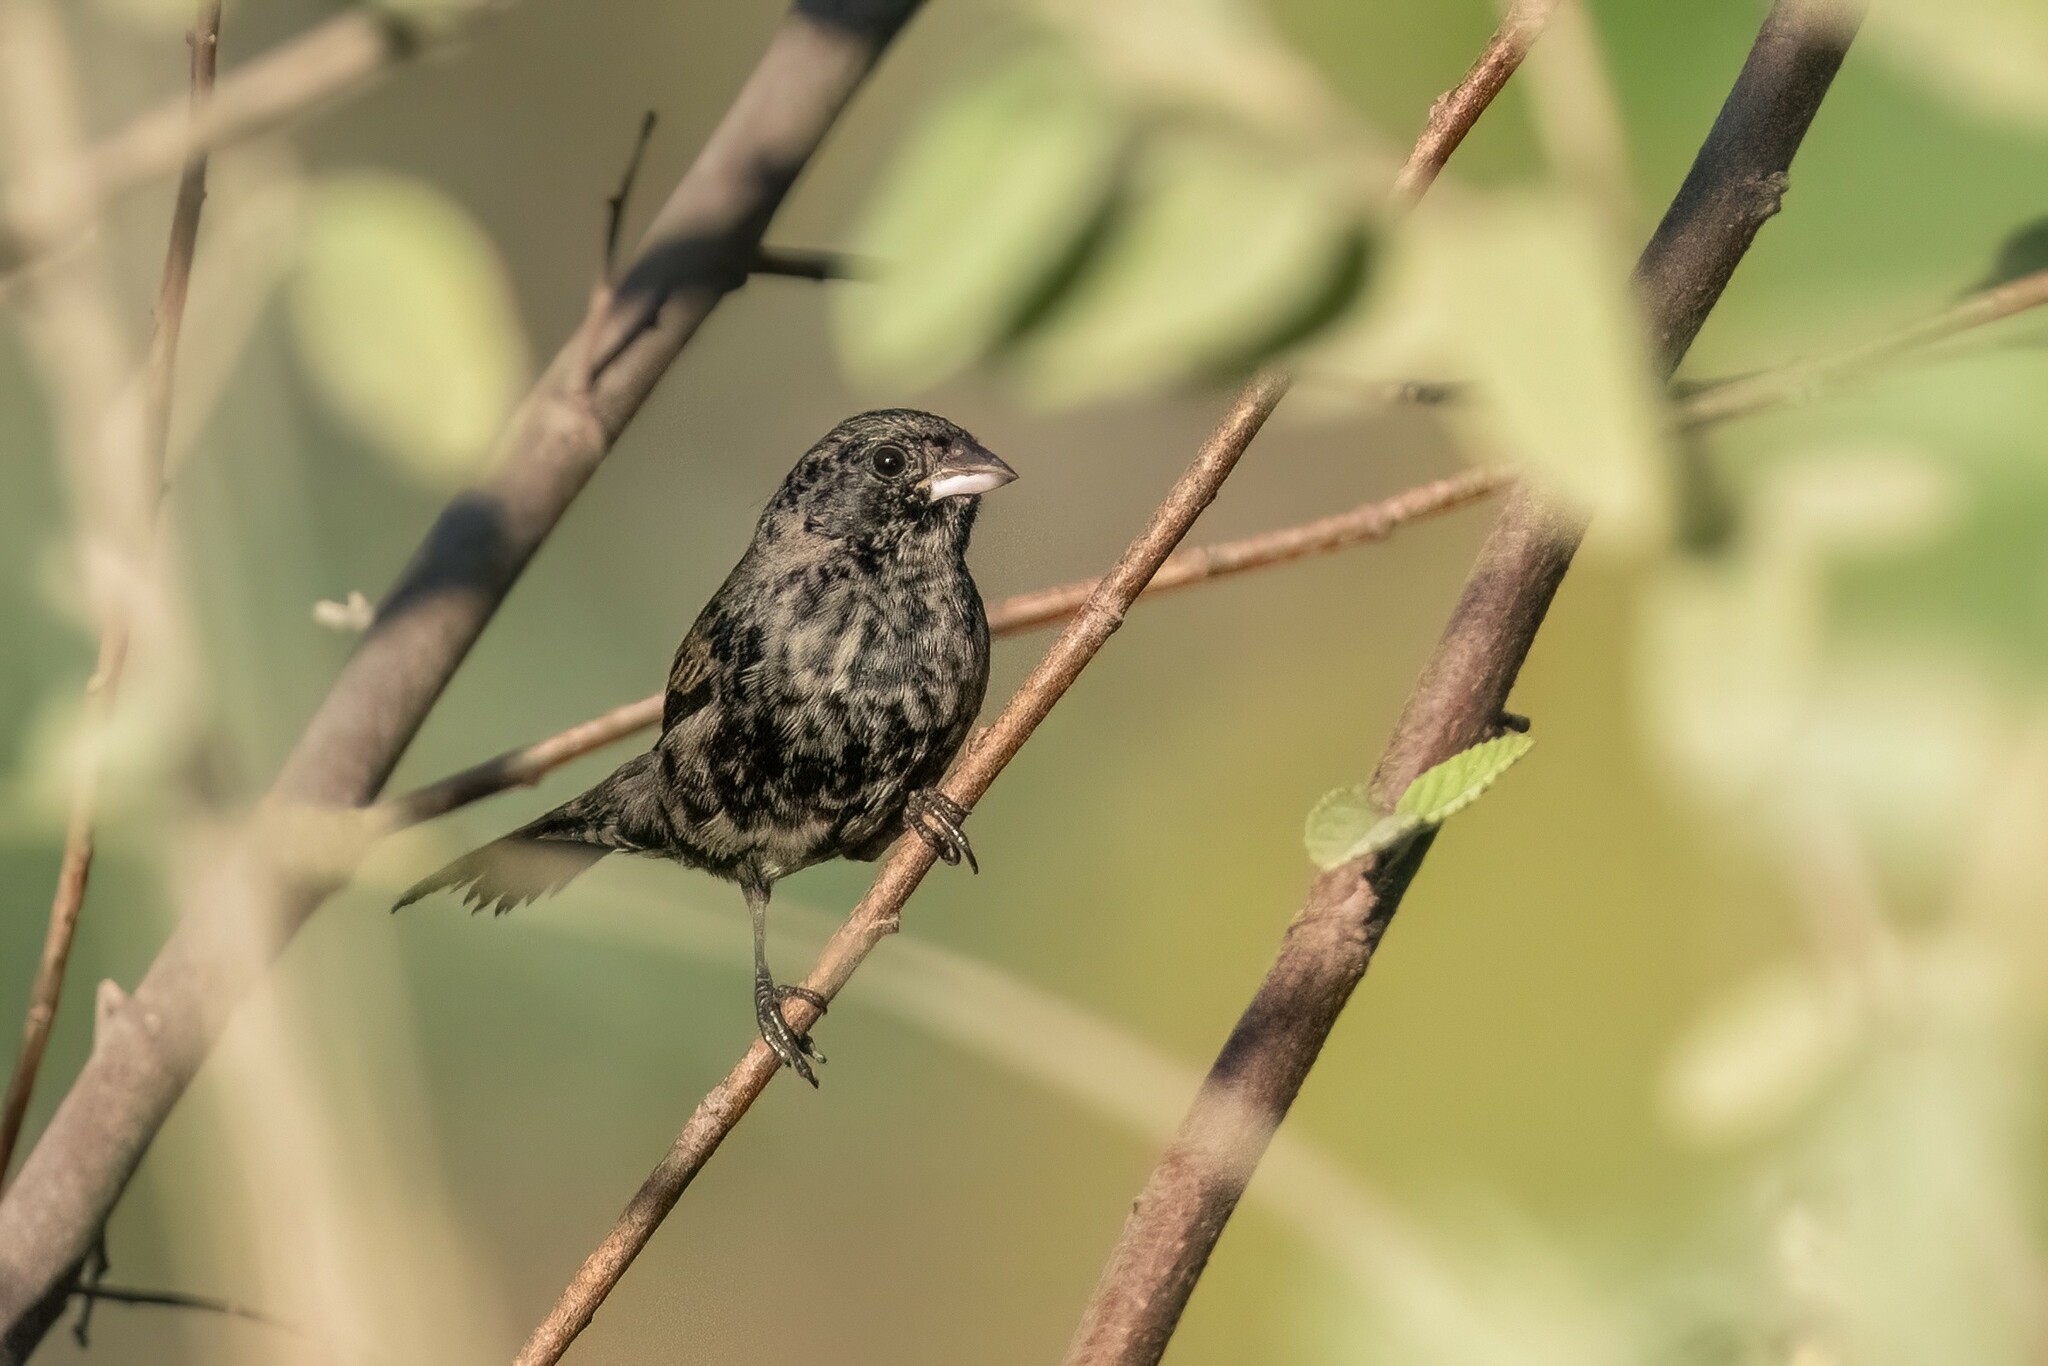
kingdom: Animalia
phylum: Chordata
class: Aves
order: Passeriformes
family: Thraupidae
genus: Volatinia
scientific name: Volatinia jacarina
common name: Blue-black grassquit
